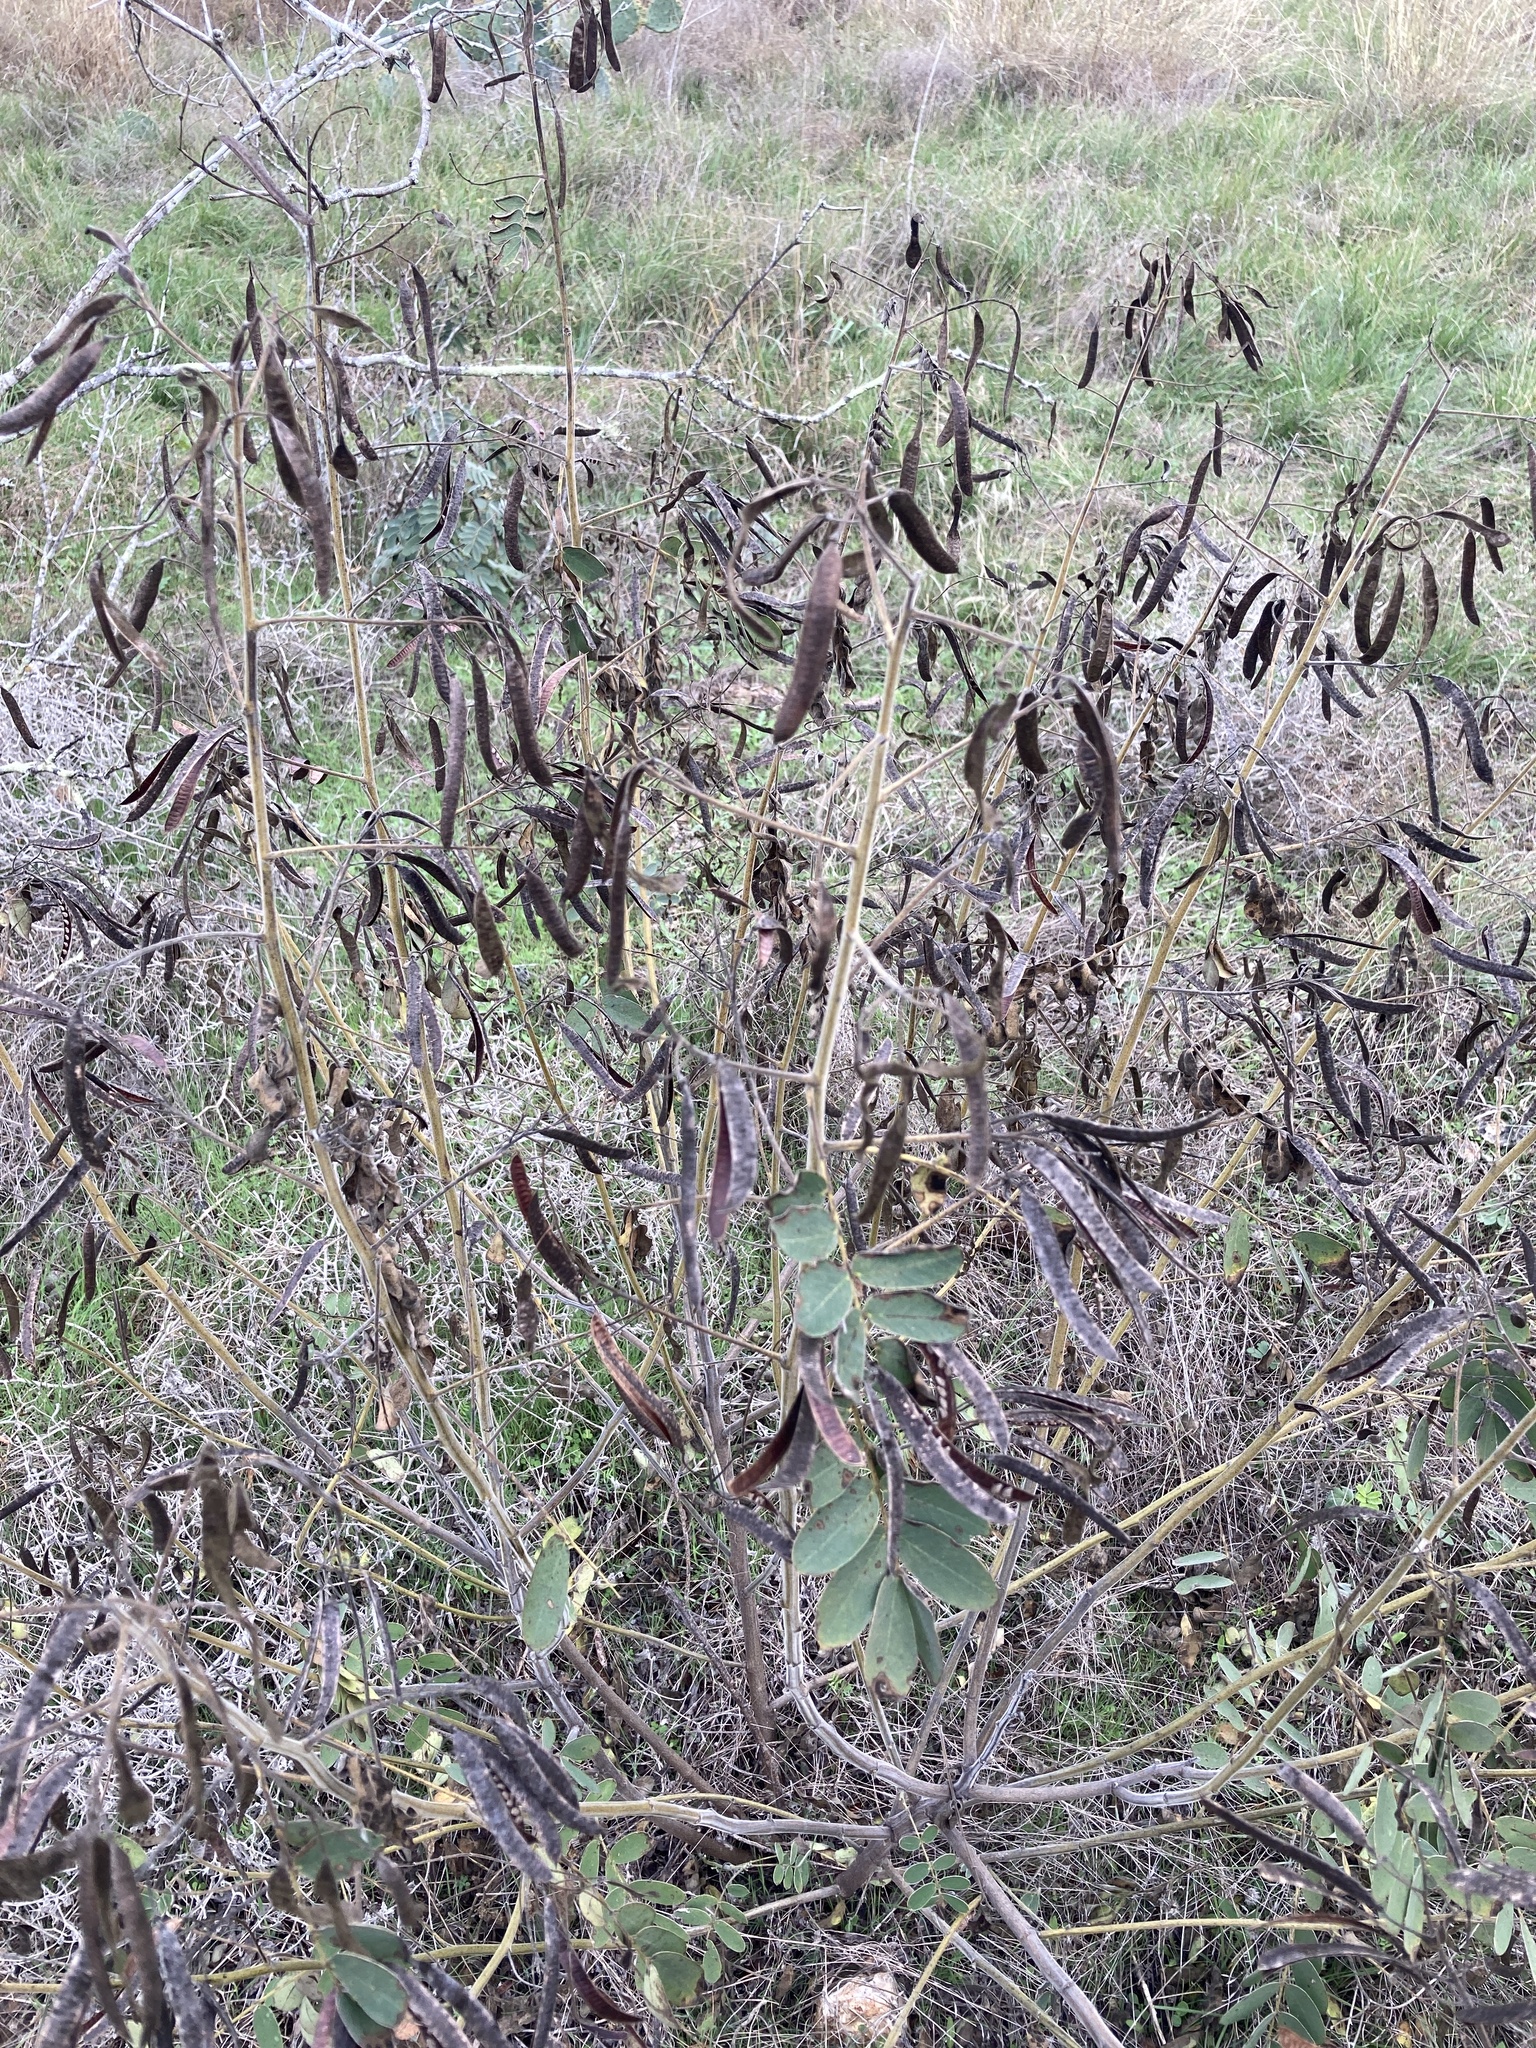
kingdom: Plantae
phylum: Tracheophyta
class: Magnoliopsida
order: Fabales
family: Fabaceae
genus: Senna
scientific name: Senna lindheimeriana
